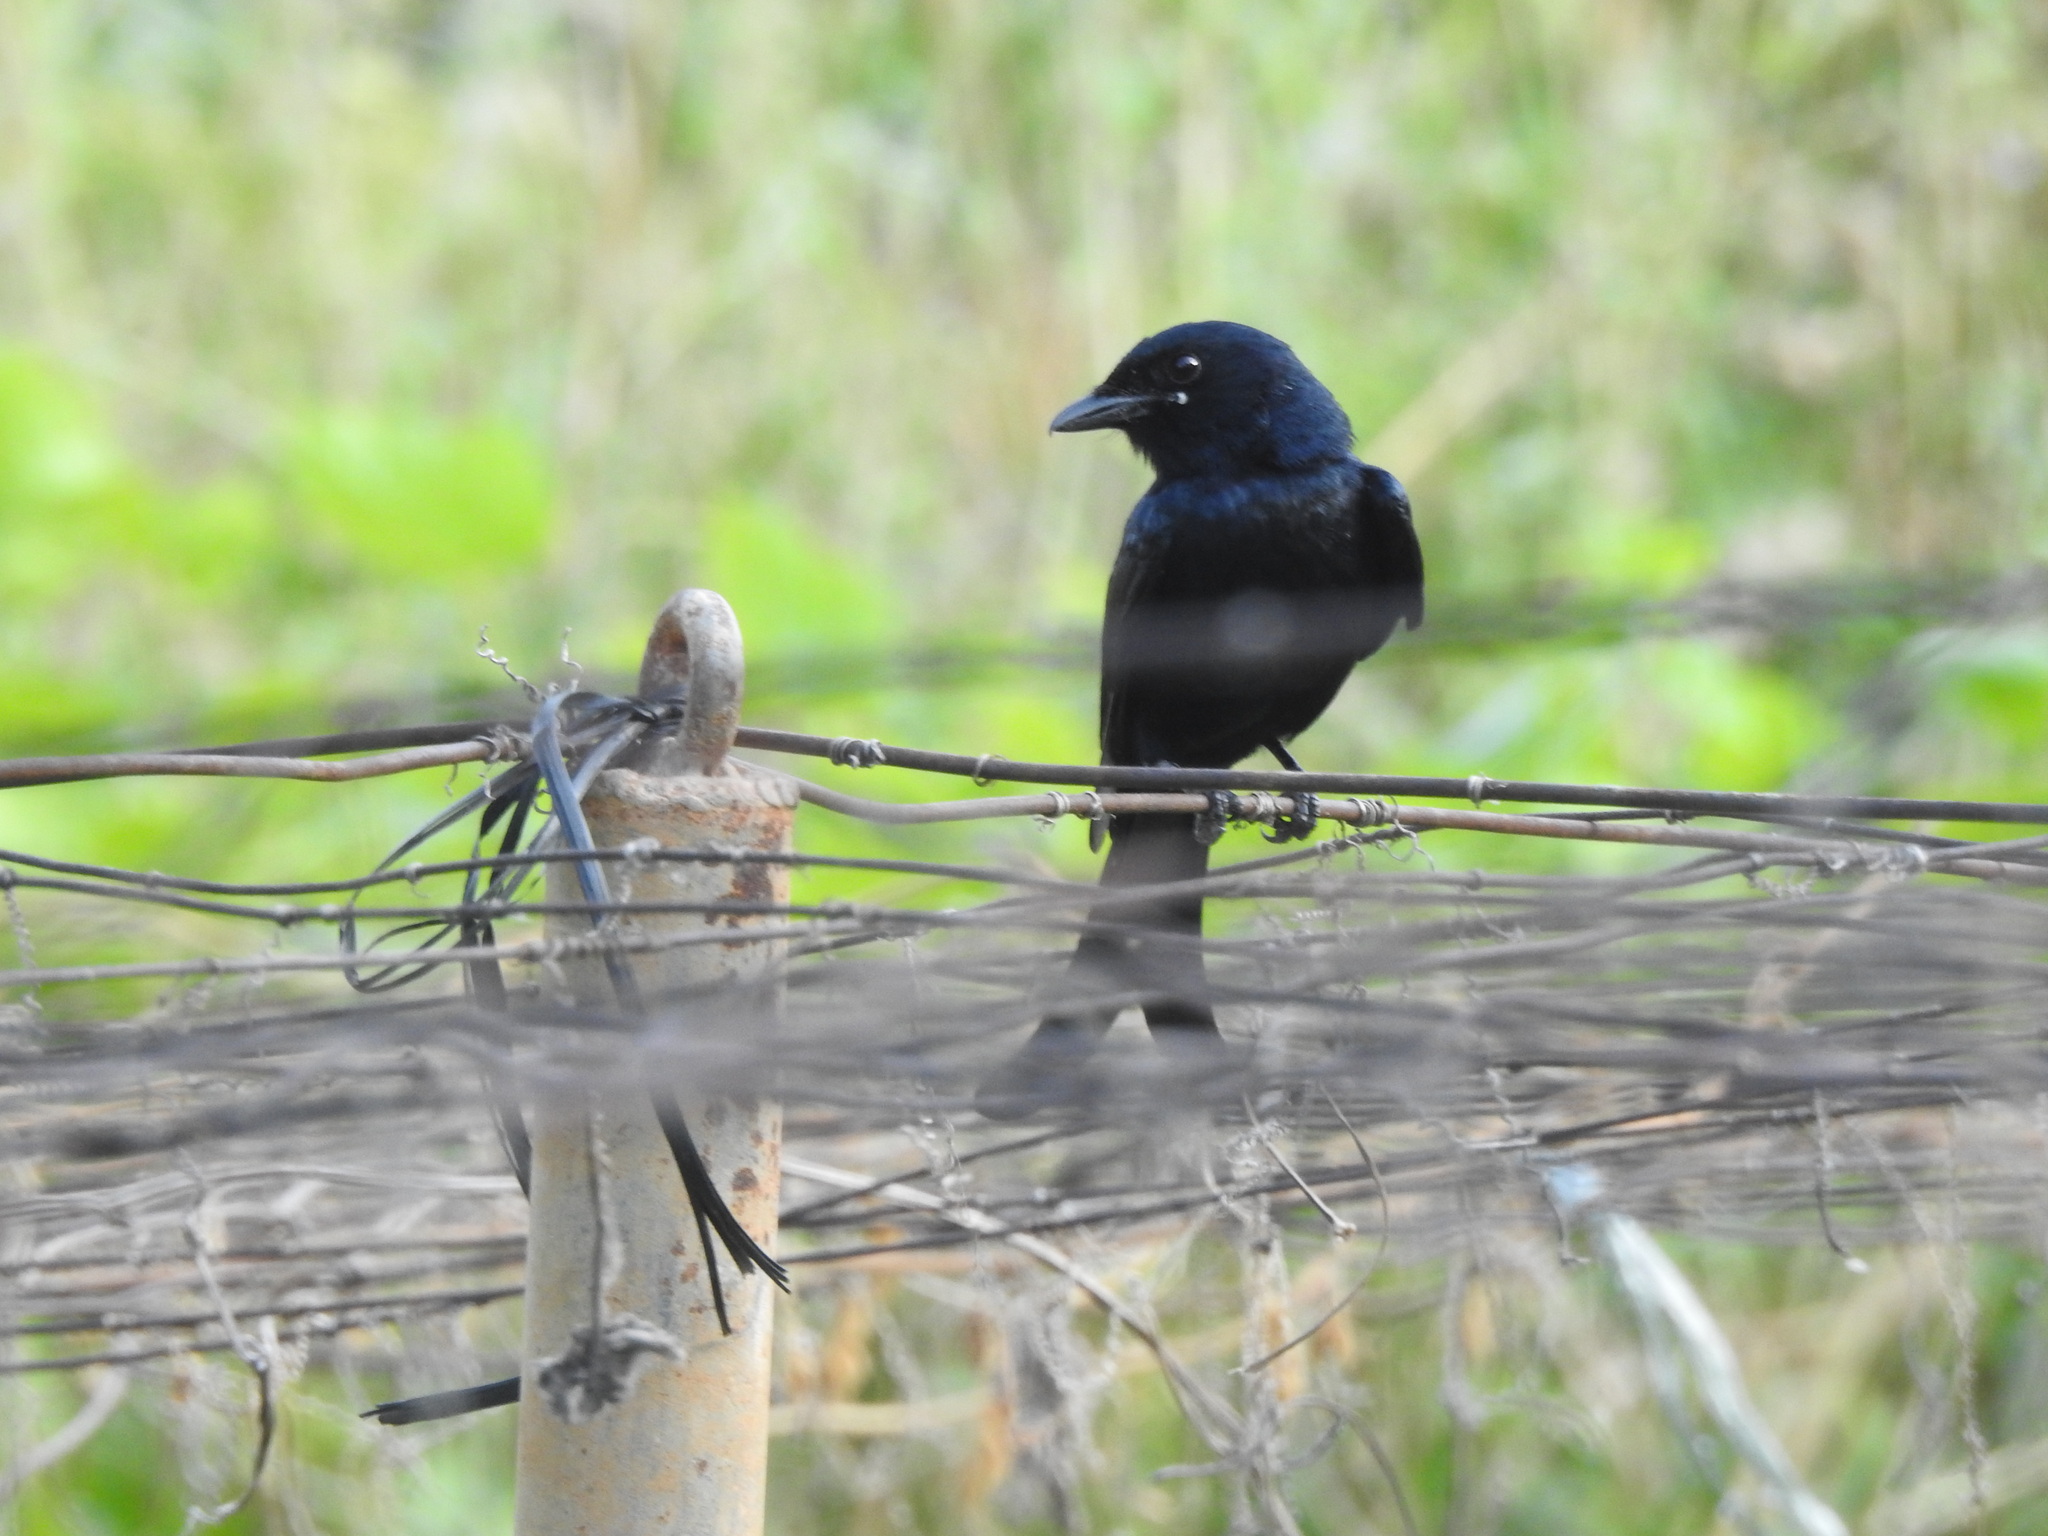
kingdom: Animalia
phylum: Chordata
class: Aves
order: Passeriformes
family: Dicruridae
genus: Dicrurus
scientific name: Dicrurus macrocercus
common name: Black drongo
